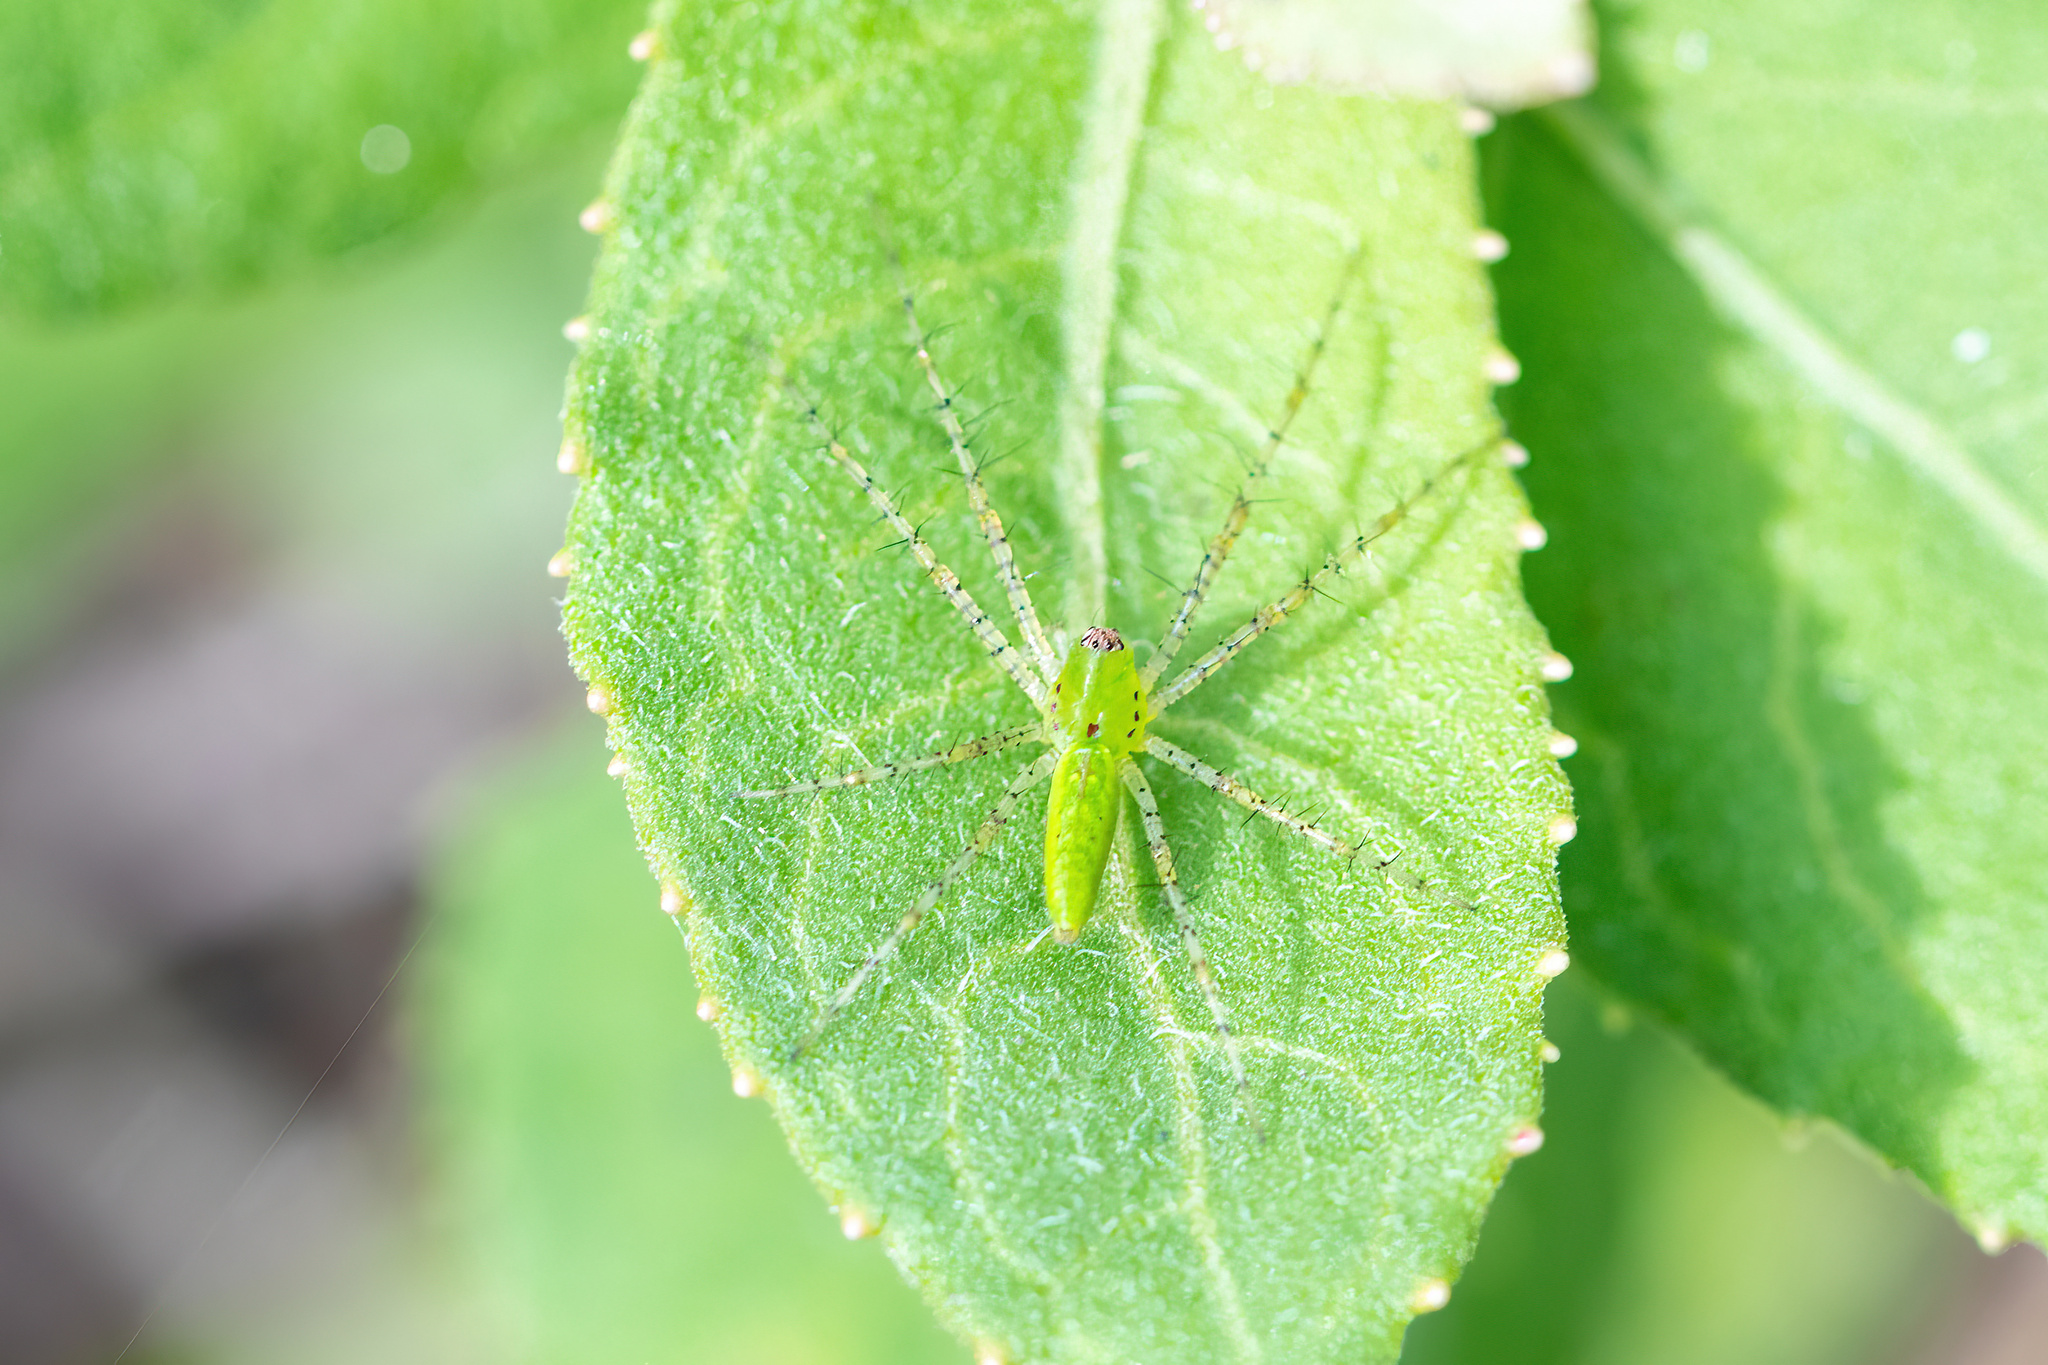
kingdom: Animalia
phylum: Arthropoda
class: Arachnida
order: Araneae
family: Oxyopidae
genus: Peucetia
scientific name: Peucetia viridans
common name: Lynx spiders
